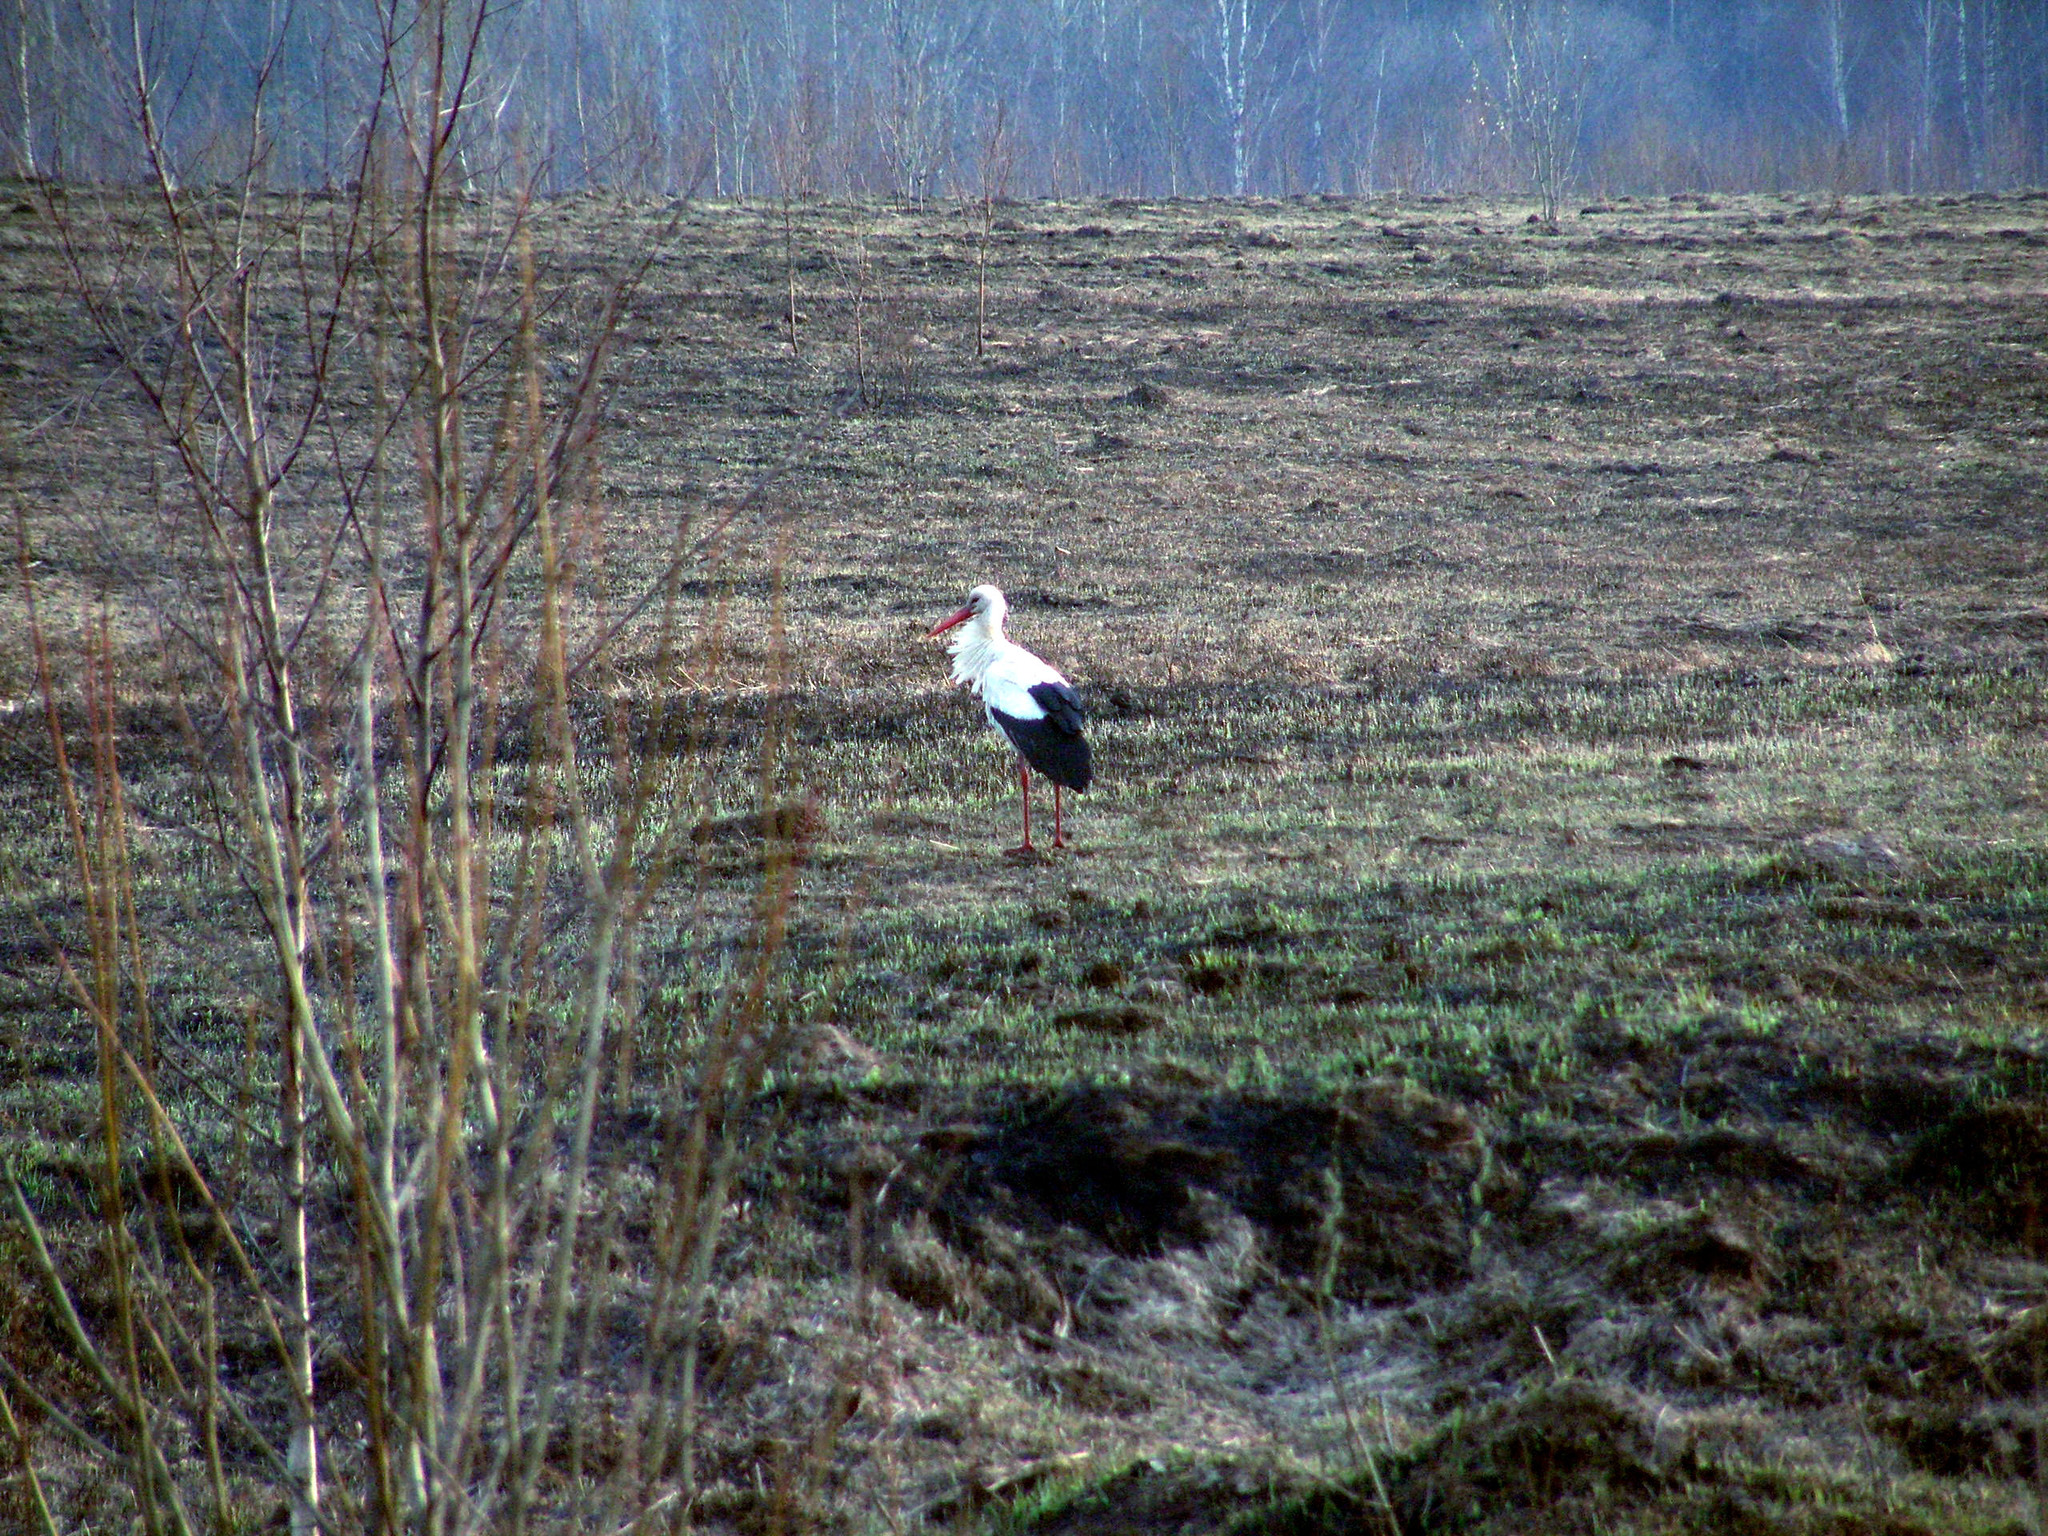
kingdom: Animalia
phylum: Chordata
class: Aves
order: Ciconiiformes
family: Ciconiidae
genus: Ciconia
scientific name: Ciconia ciconia
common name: White stork
